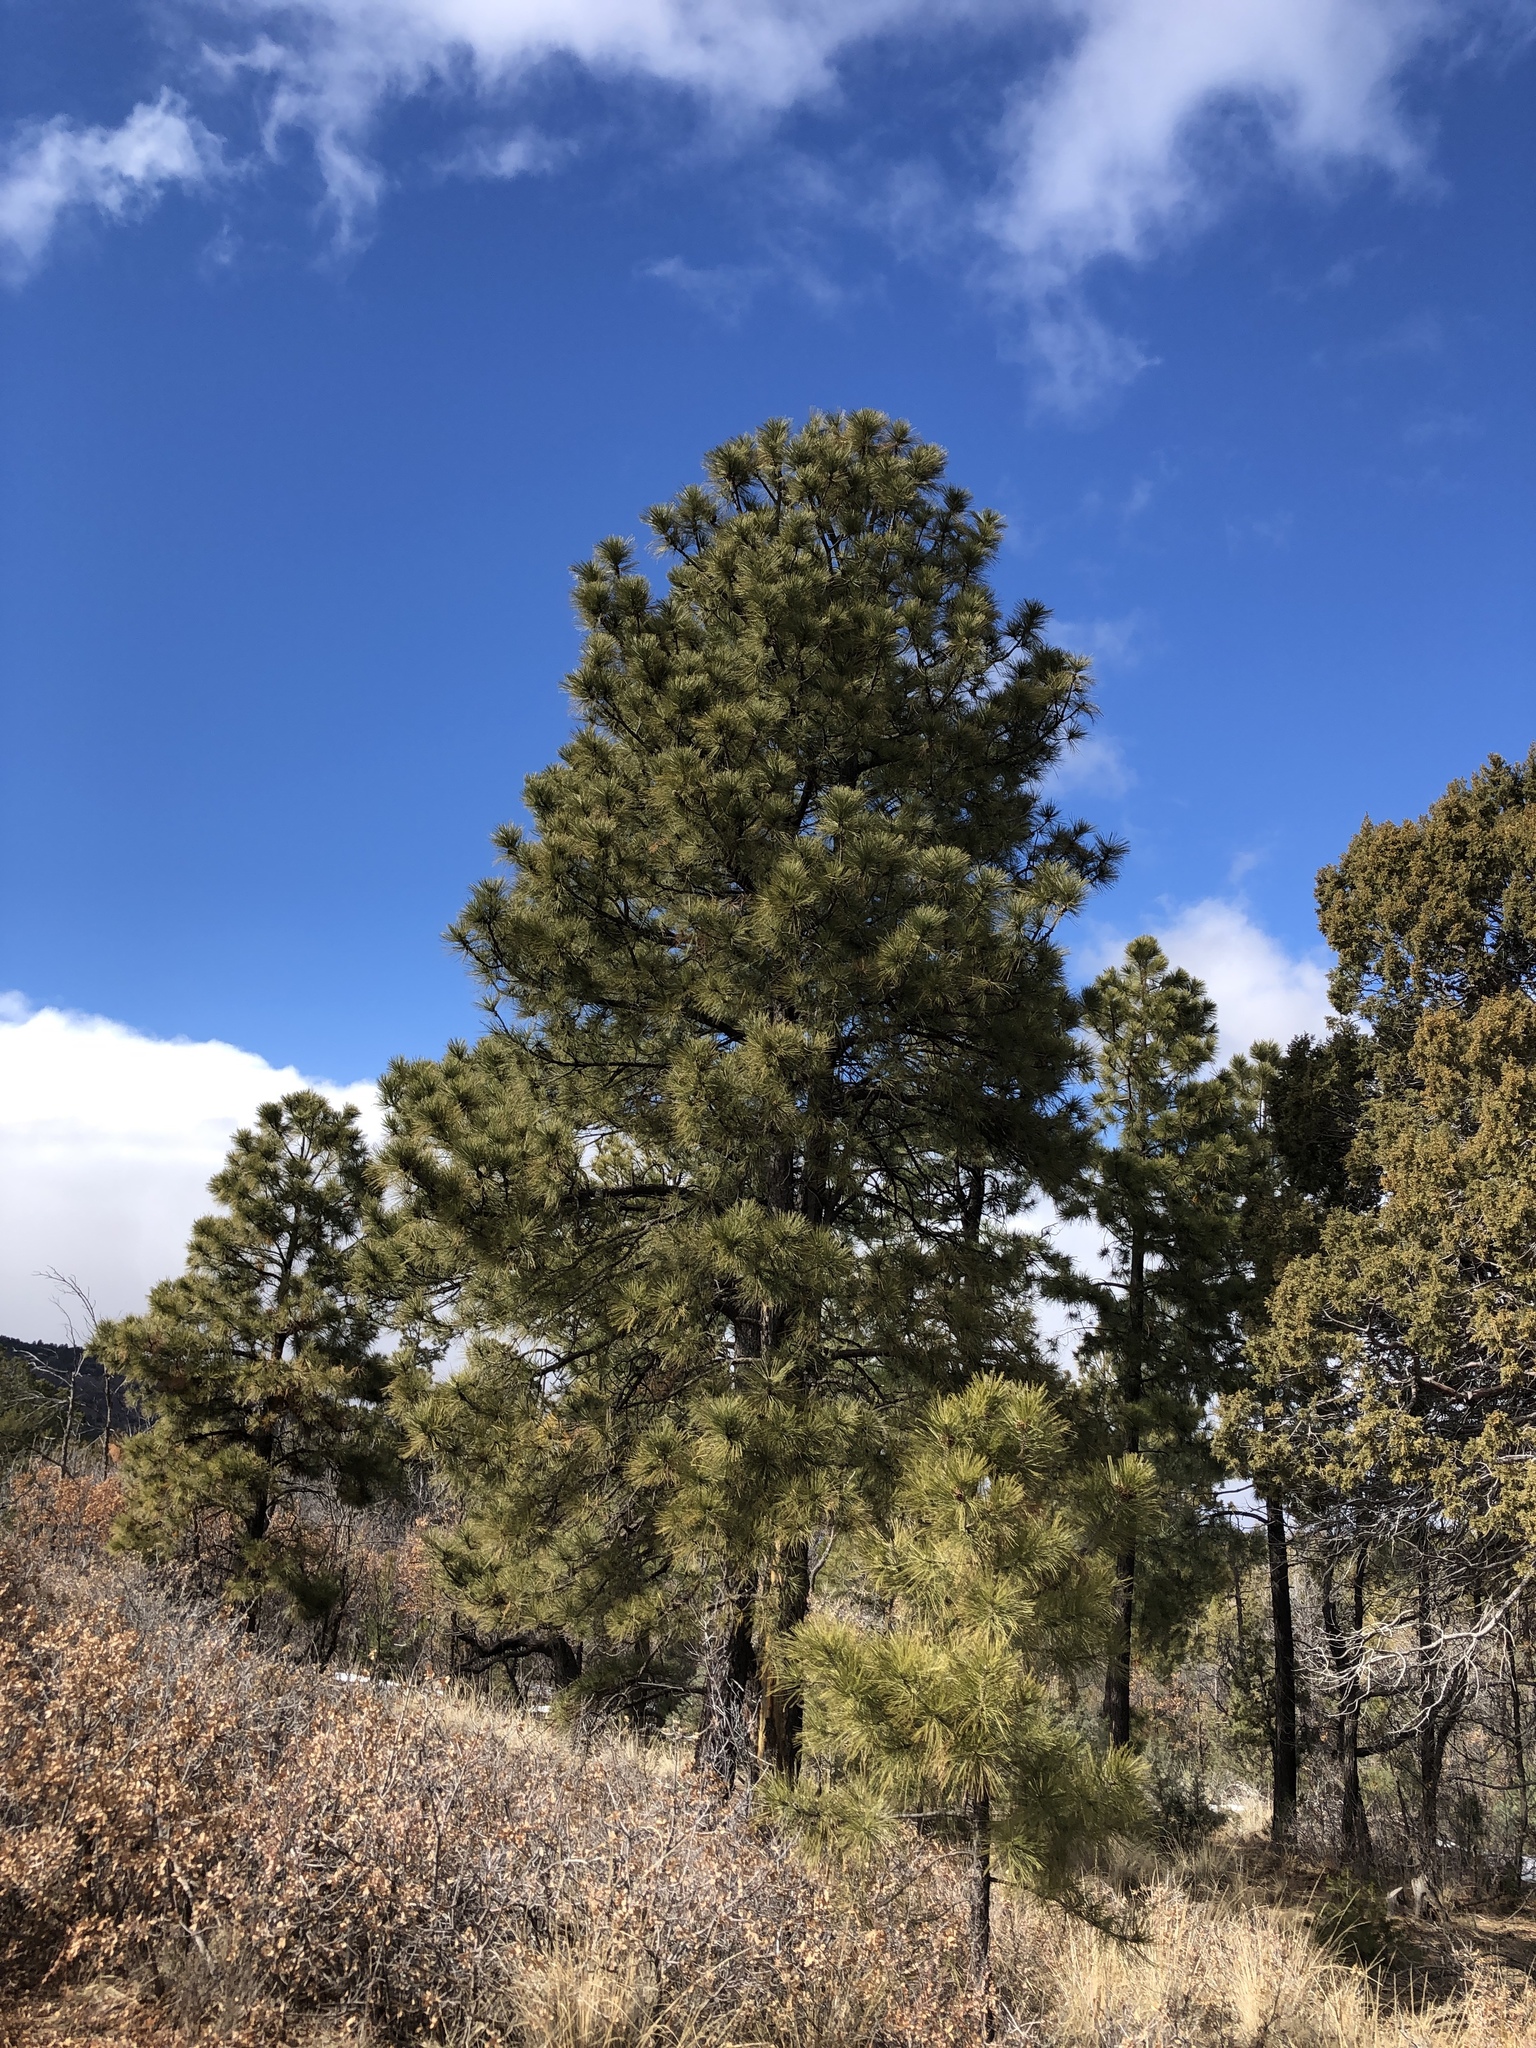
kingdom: Plantae
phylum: Tracheophyta
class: Pinopsida
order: Pinales
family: Pinaceae
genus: Pinus
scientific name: Pinus ponderosa
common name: Western yellow-pine
